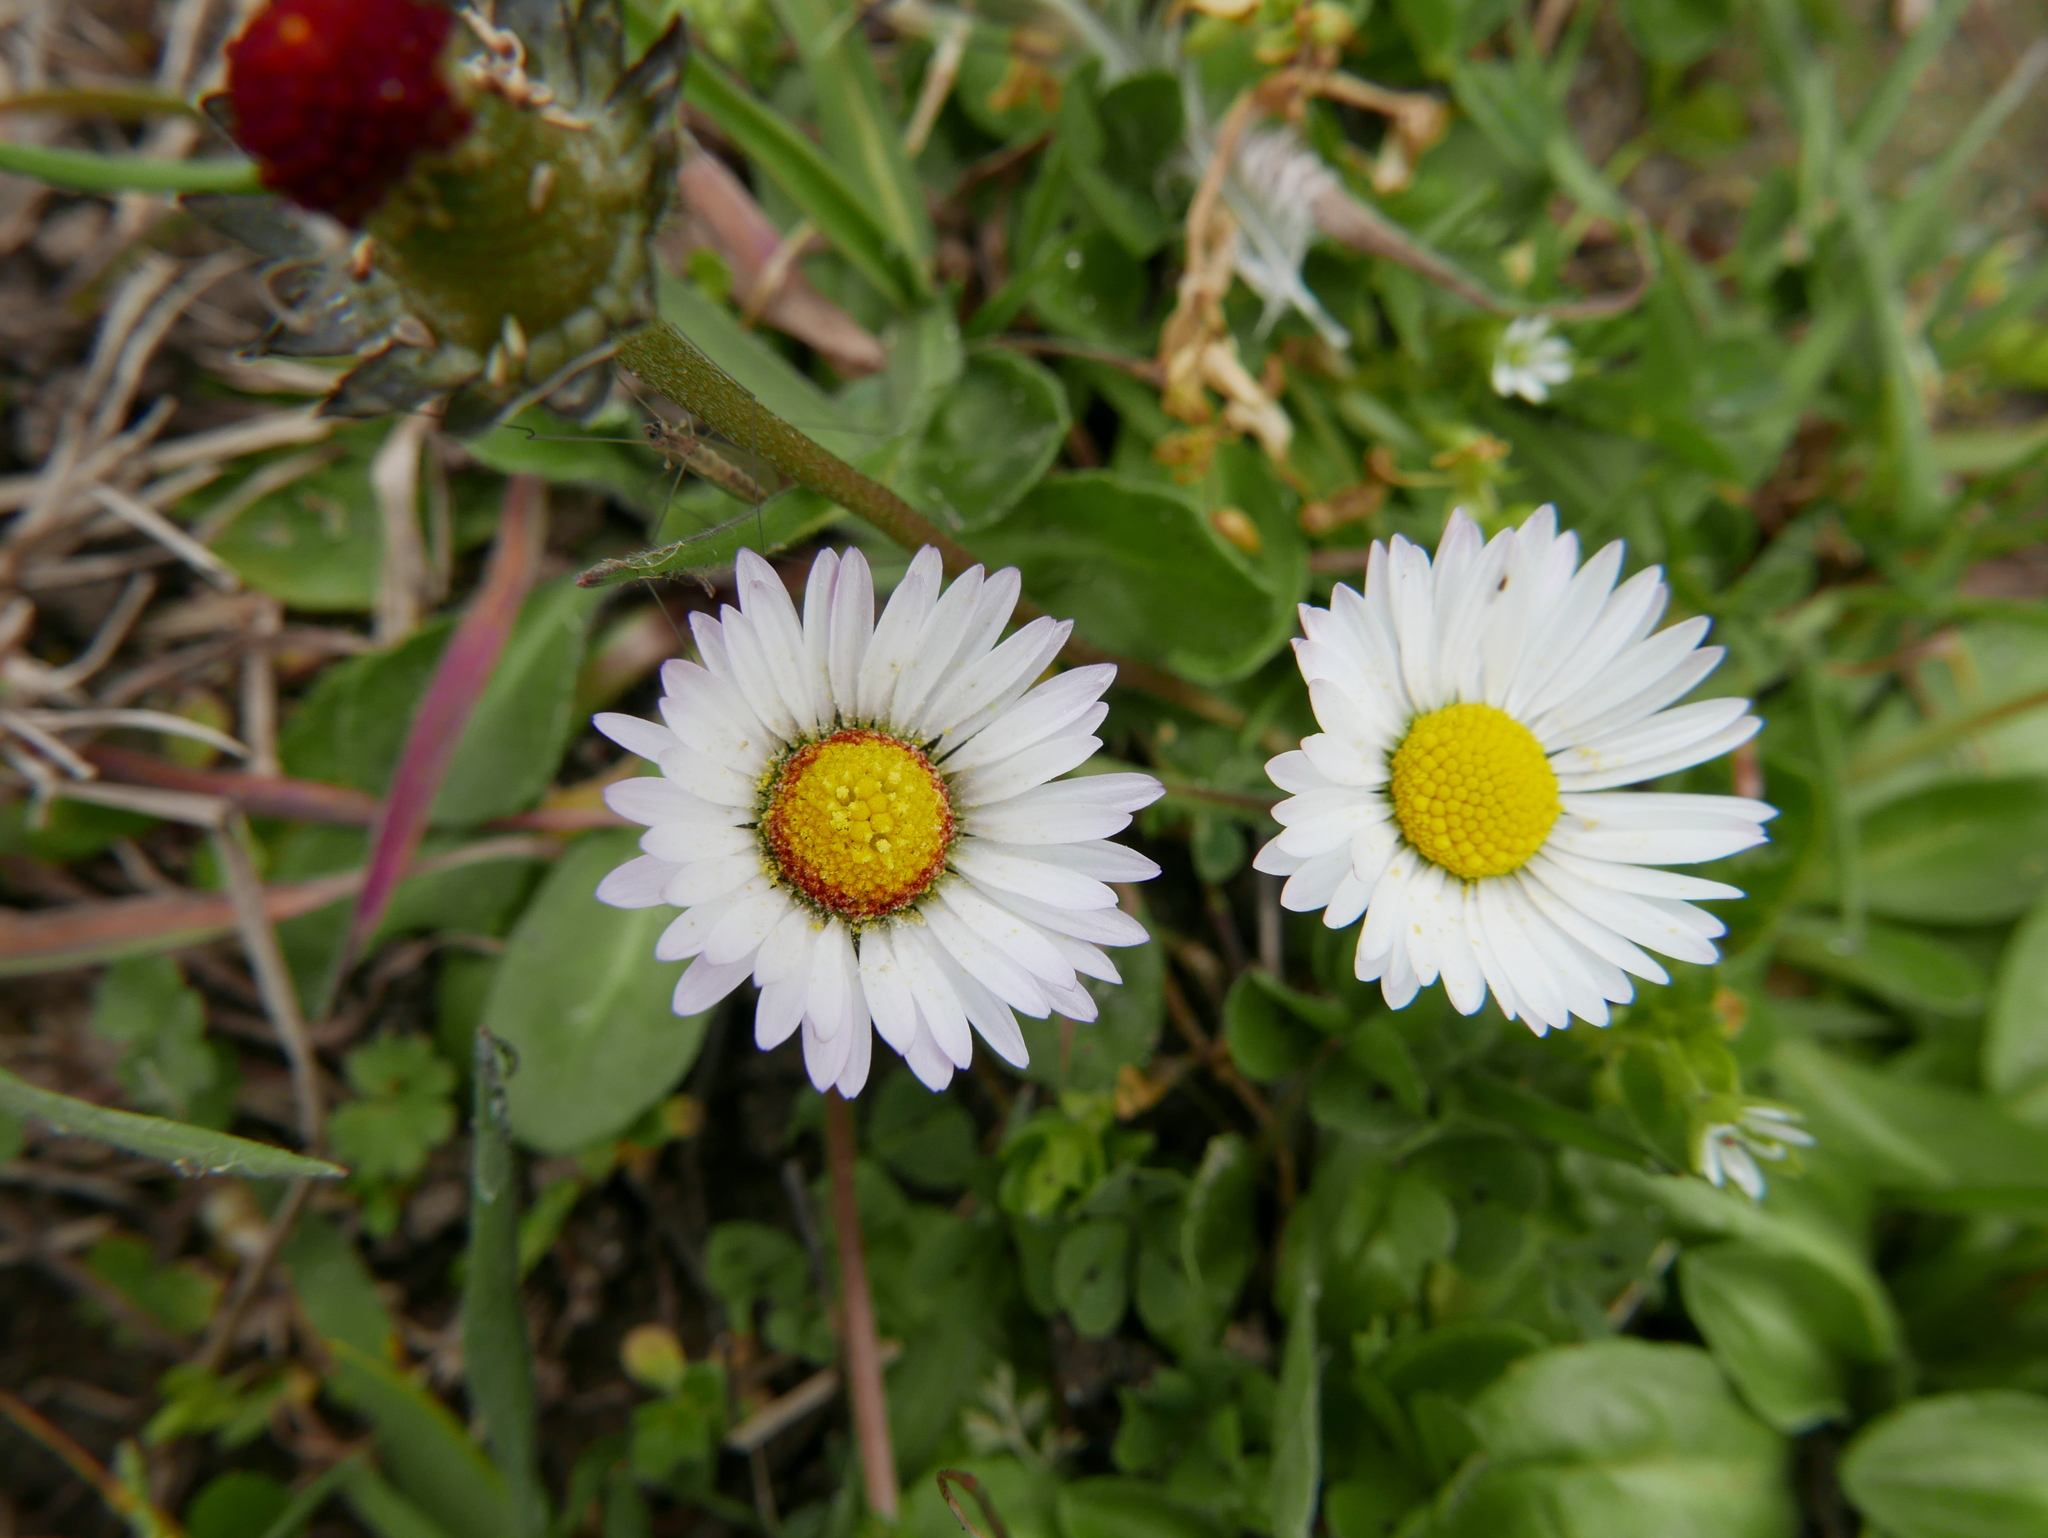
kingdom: Plantae
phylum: Tracheophyta
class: Magnoliopsida
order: Asterales
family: Asteraceae
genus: Bellis
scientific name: Bellis perennis
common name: Lawndaisy
